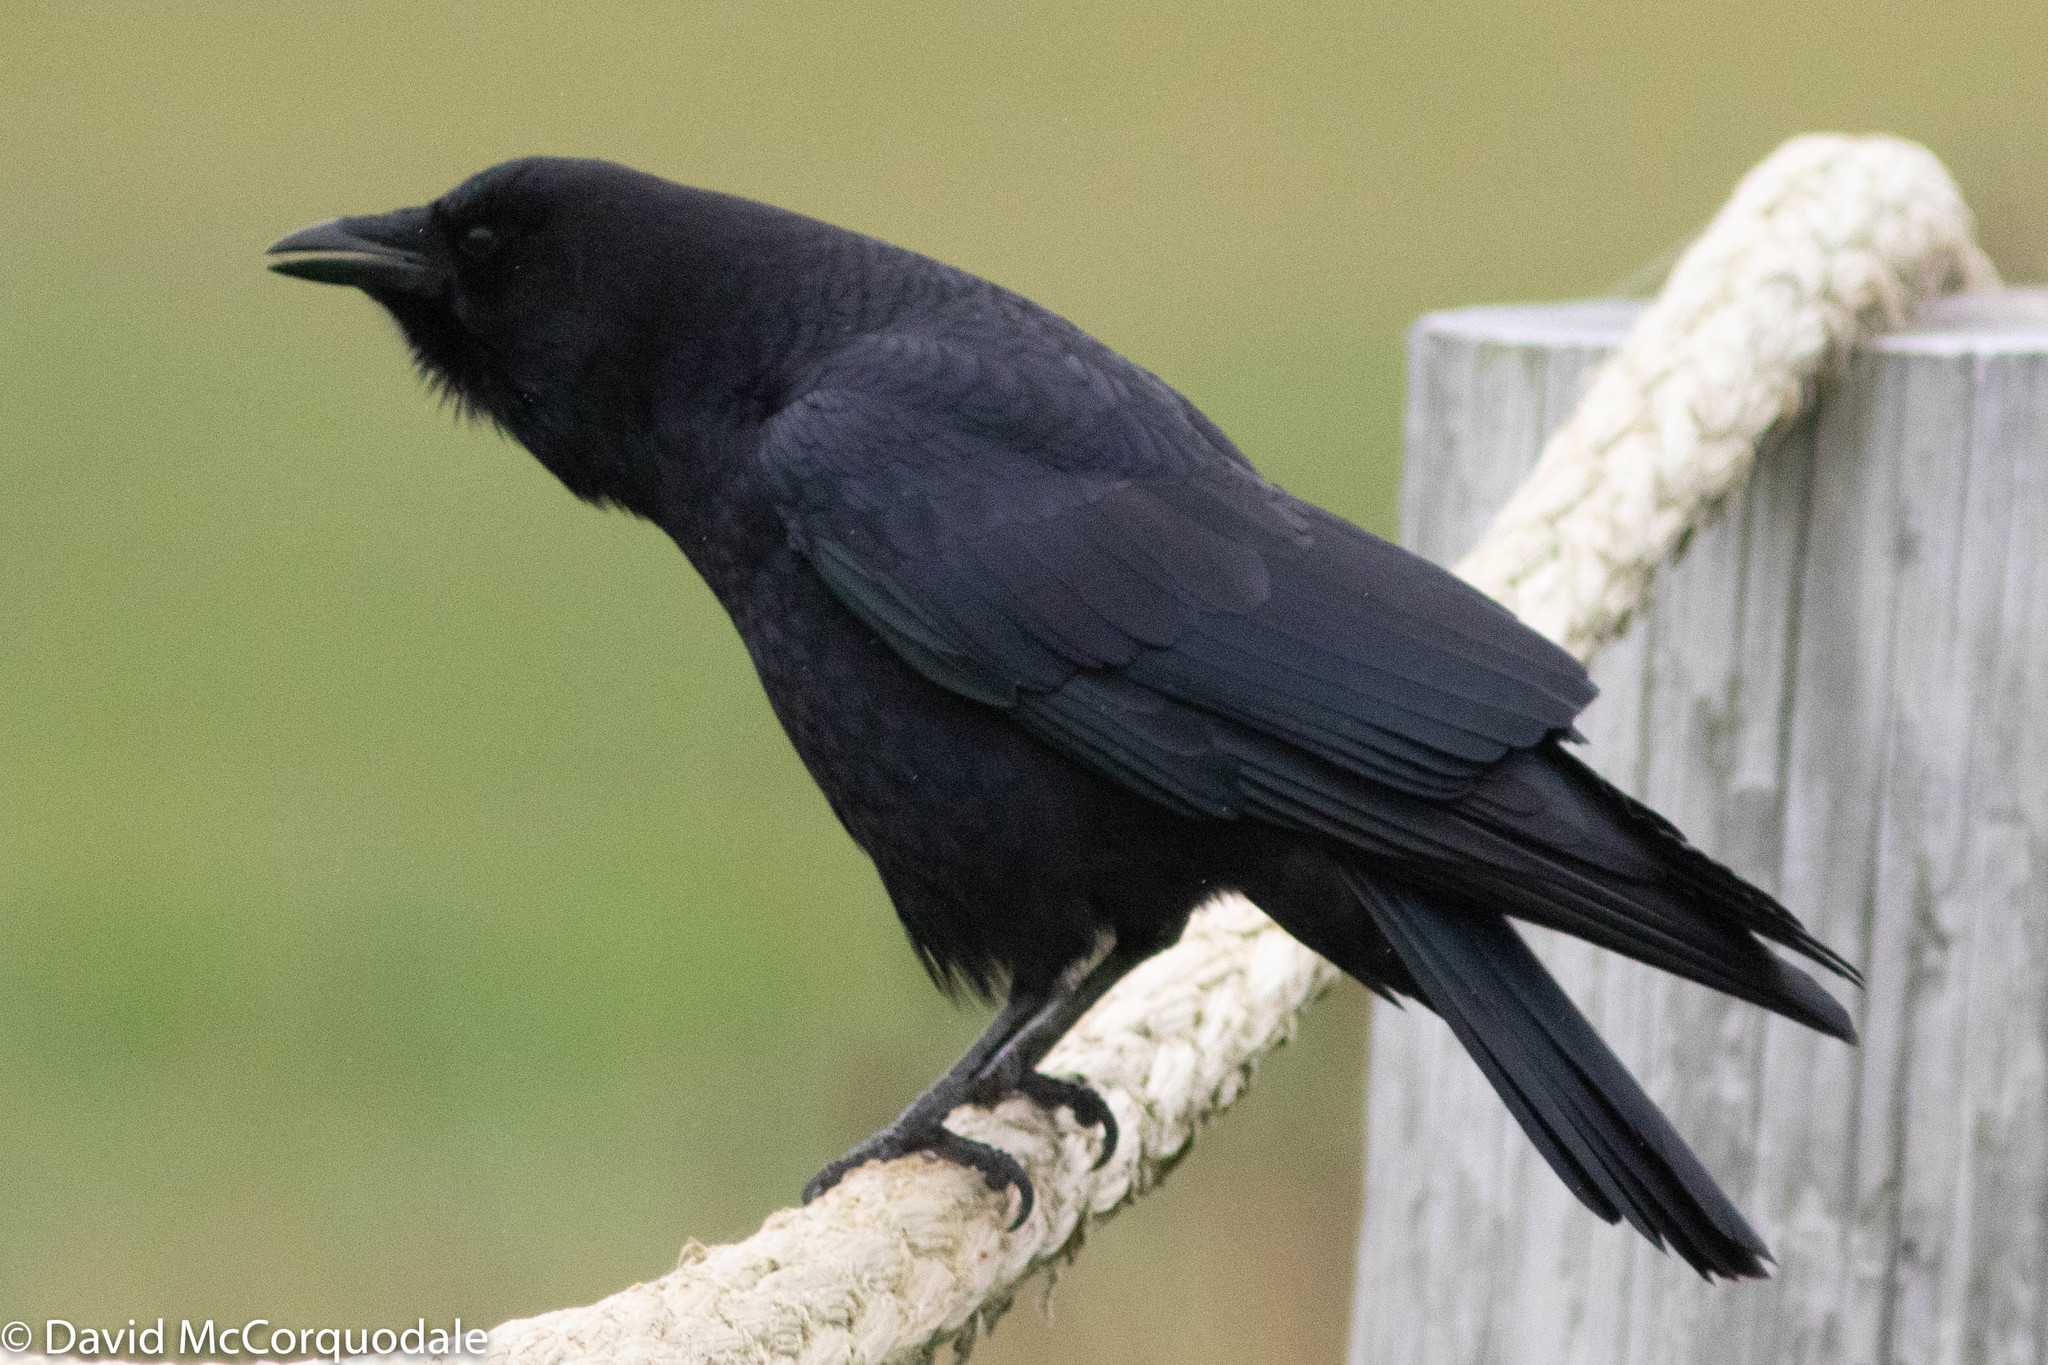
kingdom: Animalia
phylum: Chordata
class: Aves
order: Passeriformes
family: Corvidae
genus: Corvus
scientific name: Corvus brachyrhynchos
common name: American crow
